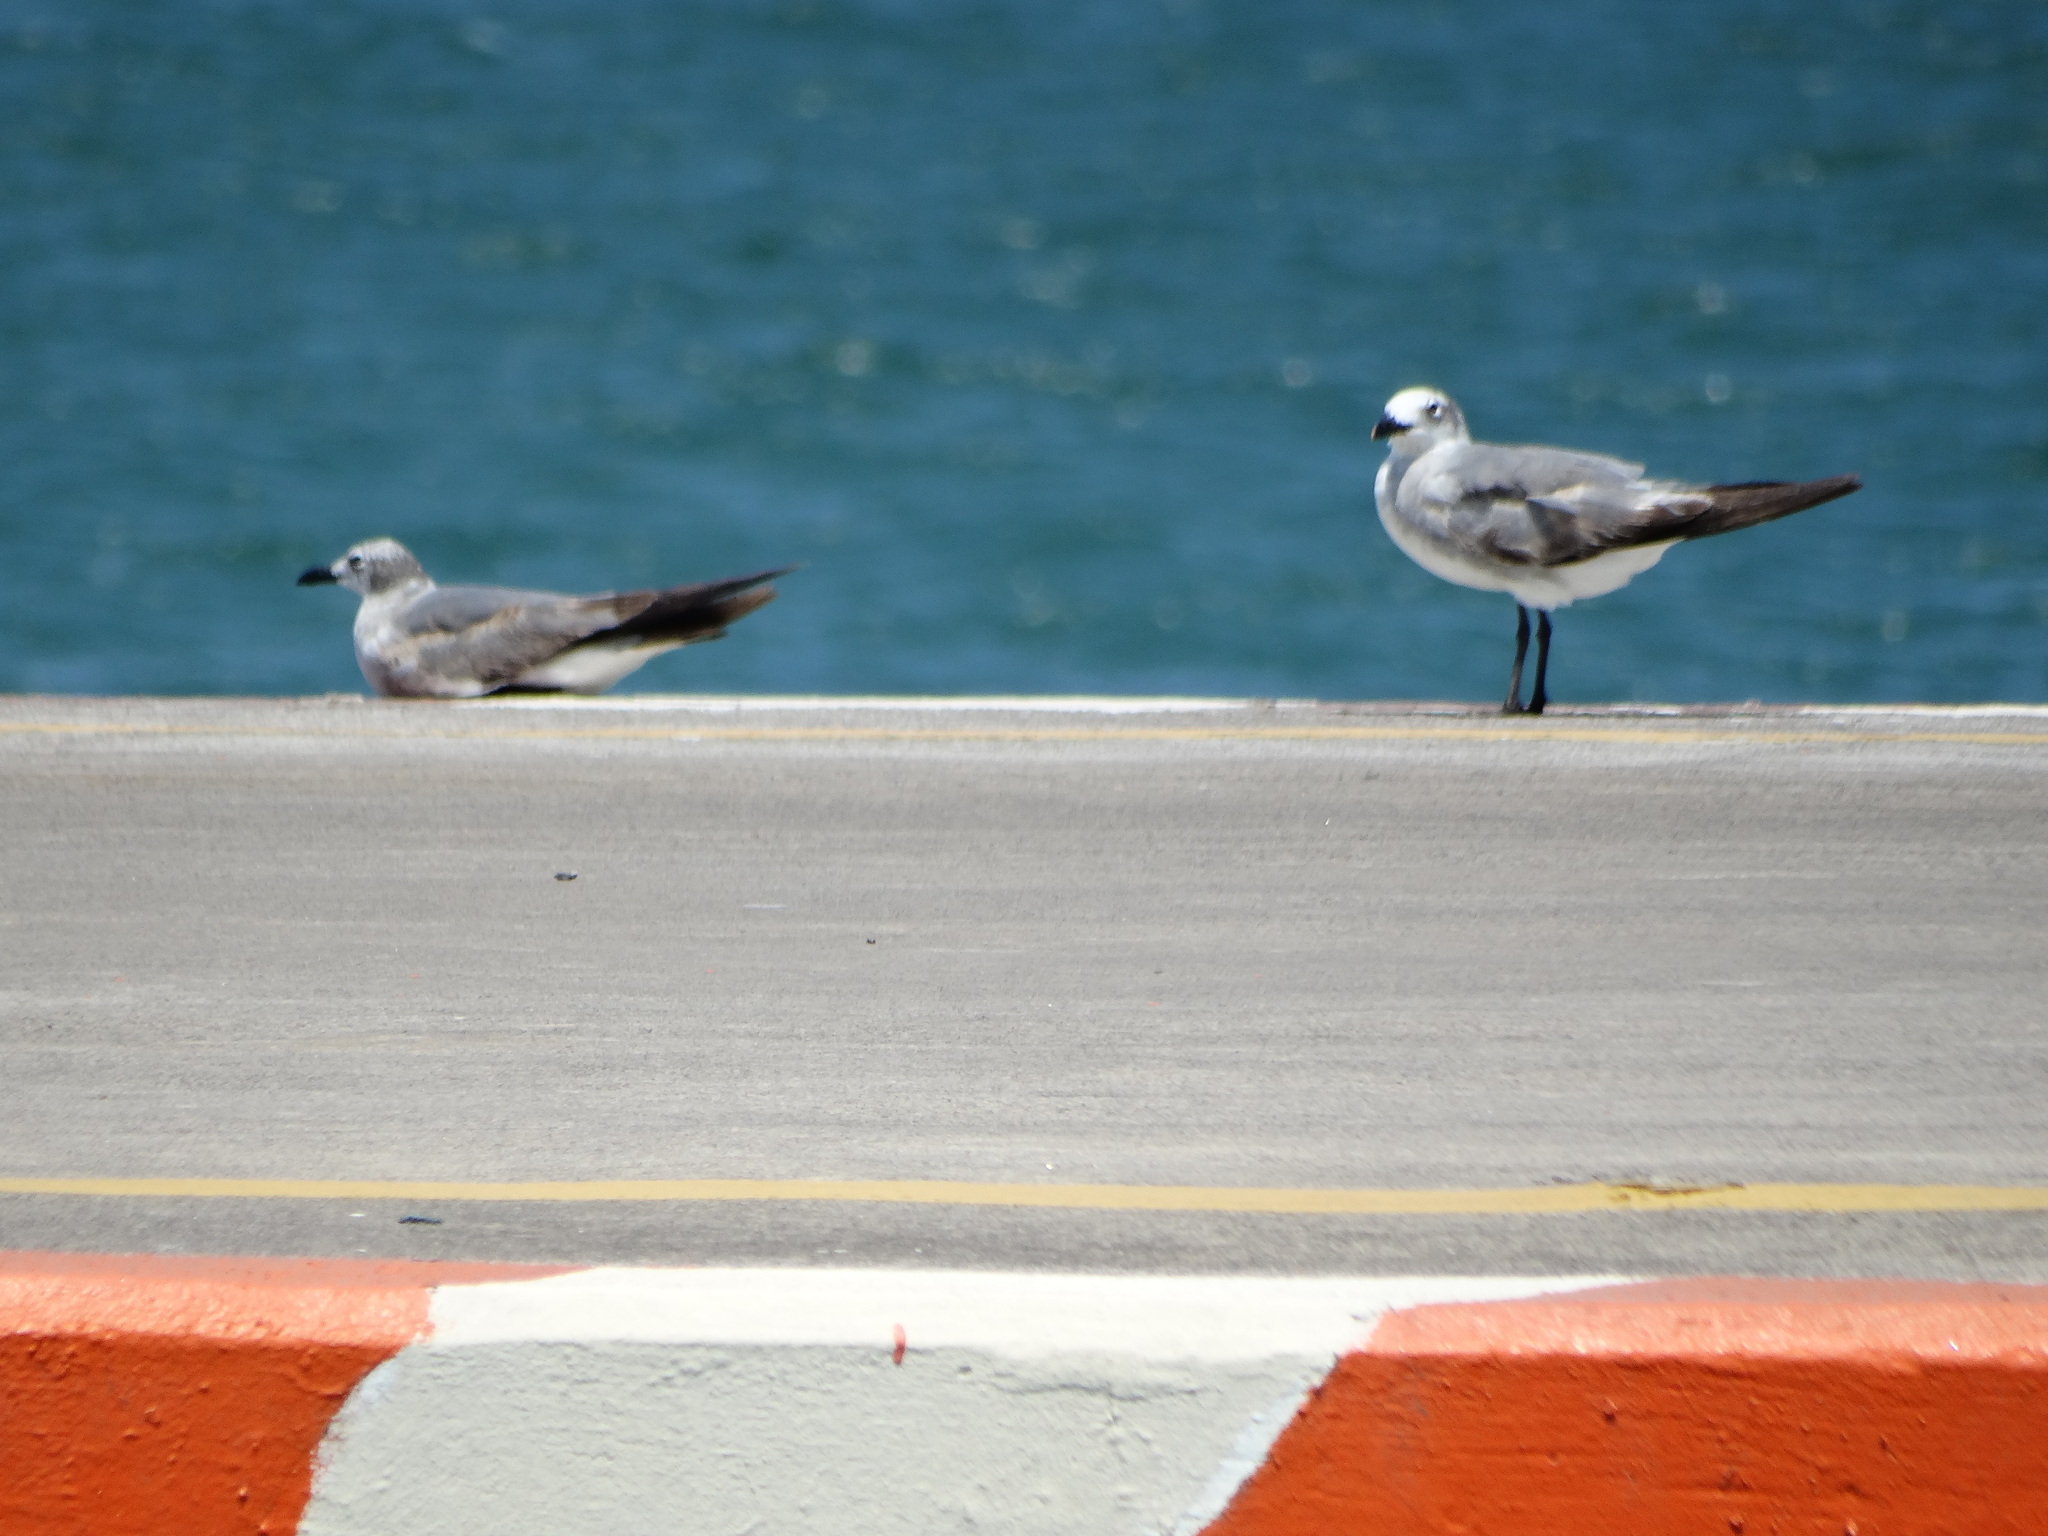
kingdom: Animalia
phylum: Chordata
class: Aves
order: Charadriiformes
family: Laridae
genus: Leucophaeus
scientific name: Leucophaeus atricilla
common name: Laughing gull
